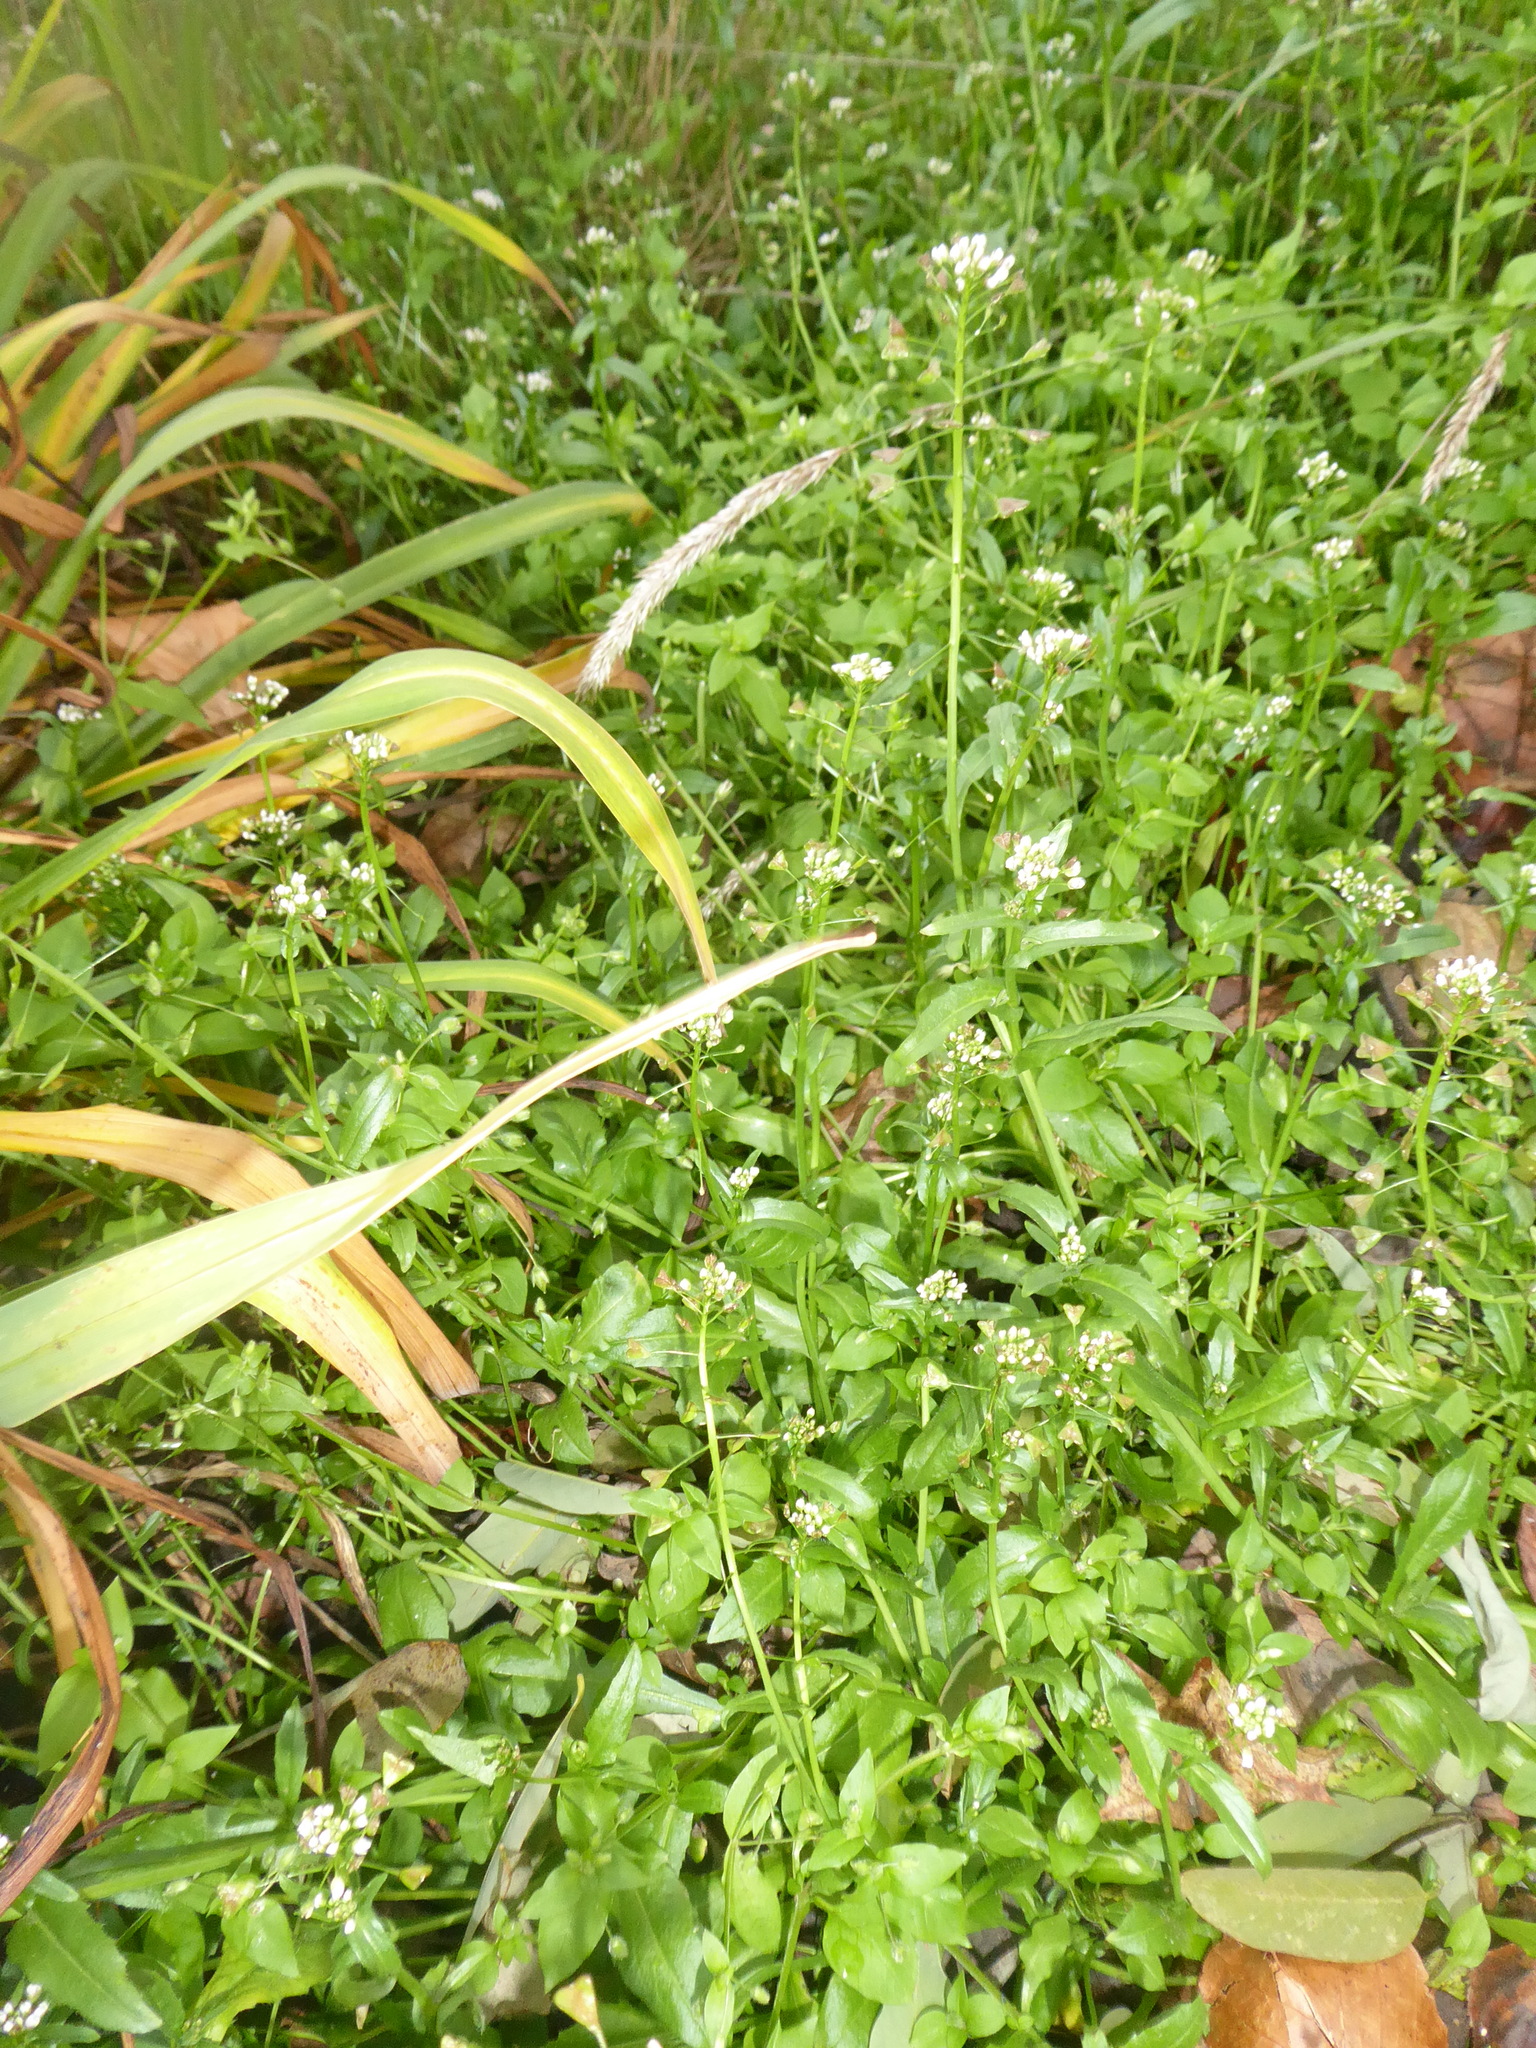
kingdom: Plantae
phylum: Tracheophyta
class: Magnoliopsida
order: Brassicales
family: Brassicaceae
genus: Capsella
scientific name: Capsella bursa-pastoris
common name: Shepherd's purse
